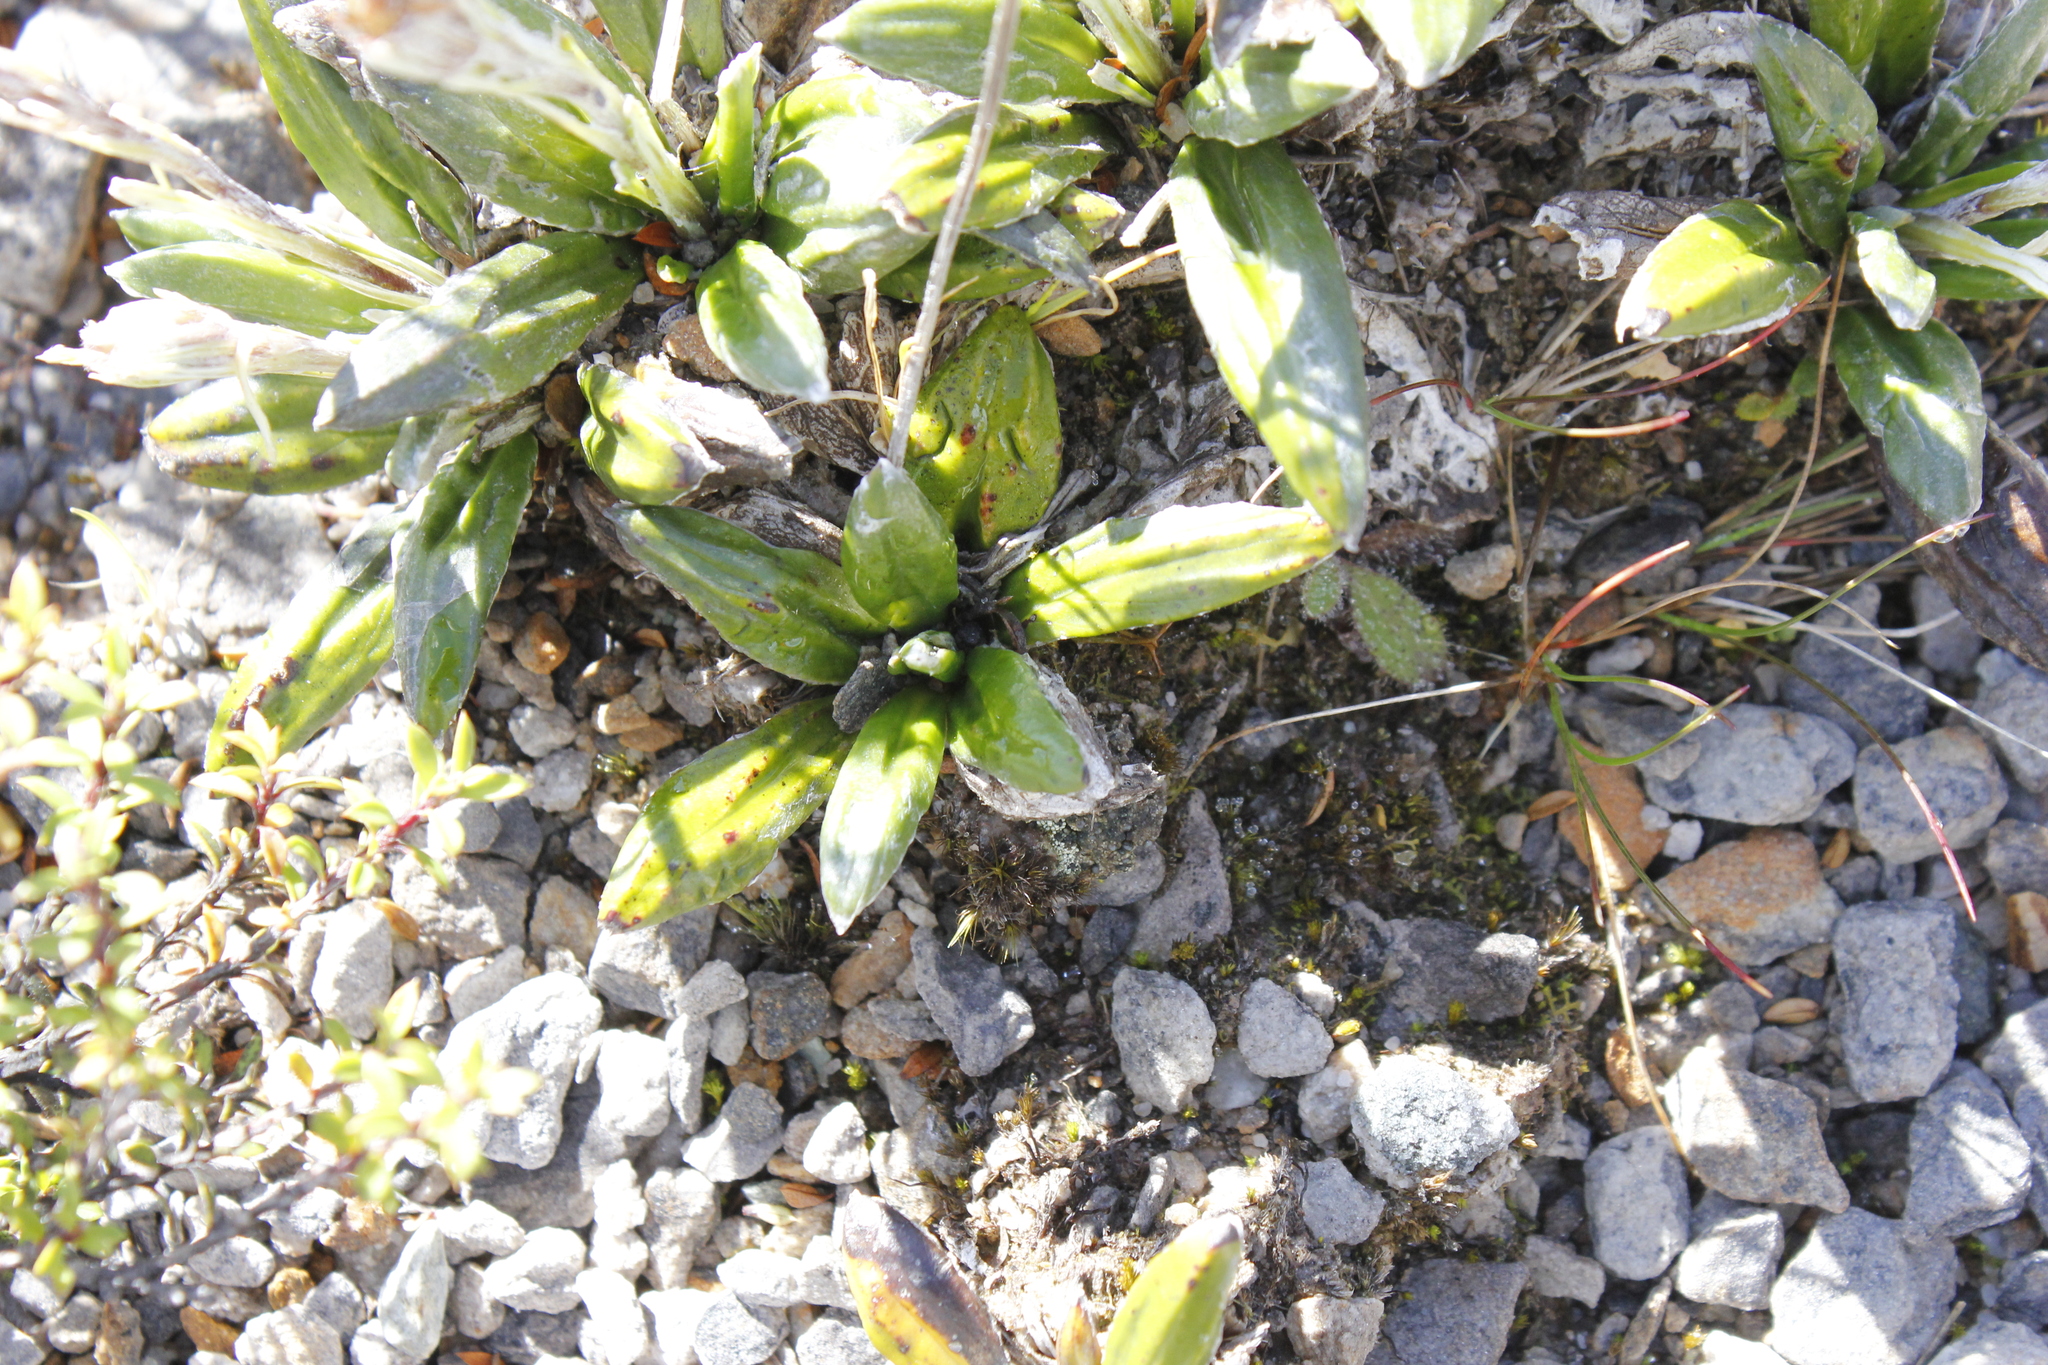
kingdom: Plantae
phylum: Tracheophyta
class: Magnoliopsida
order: Asterales
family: Asteraceae
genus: Celmisia
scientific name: Celmisia dubia
